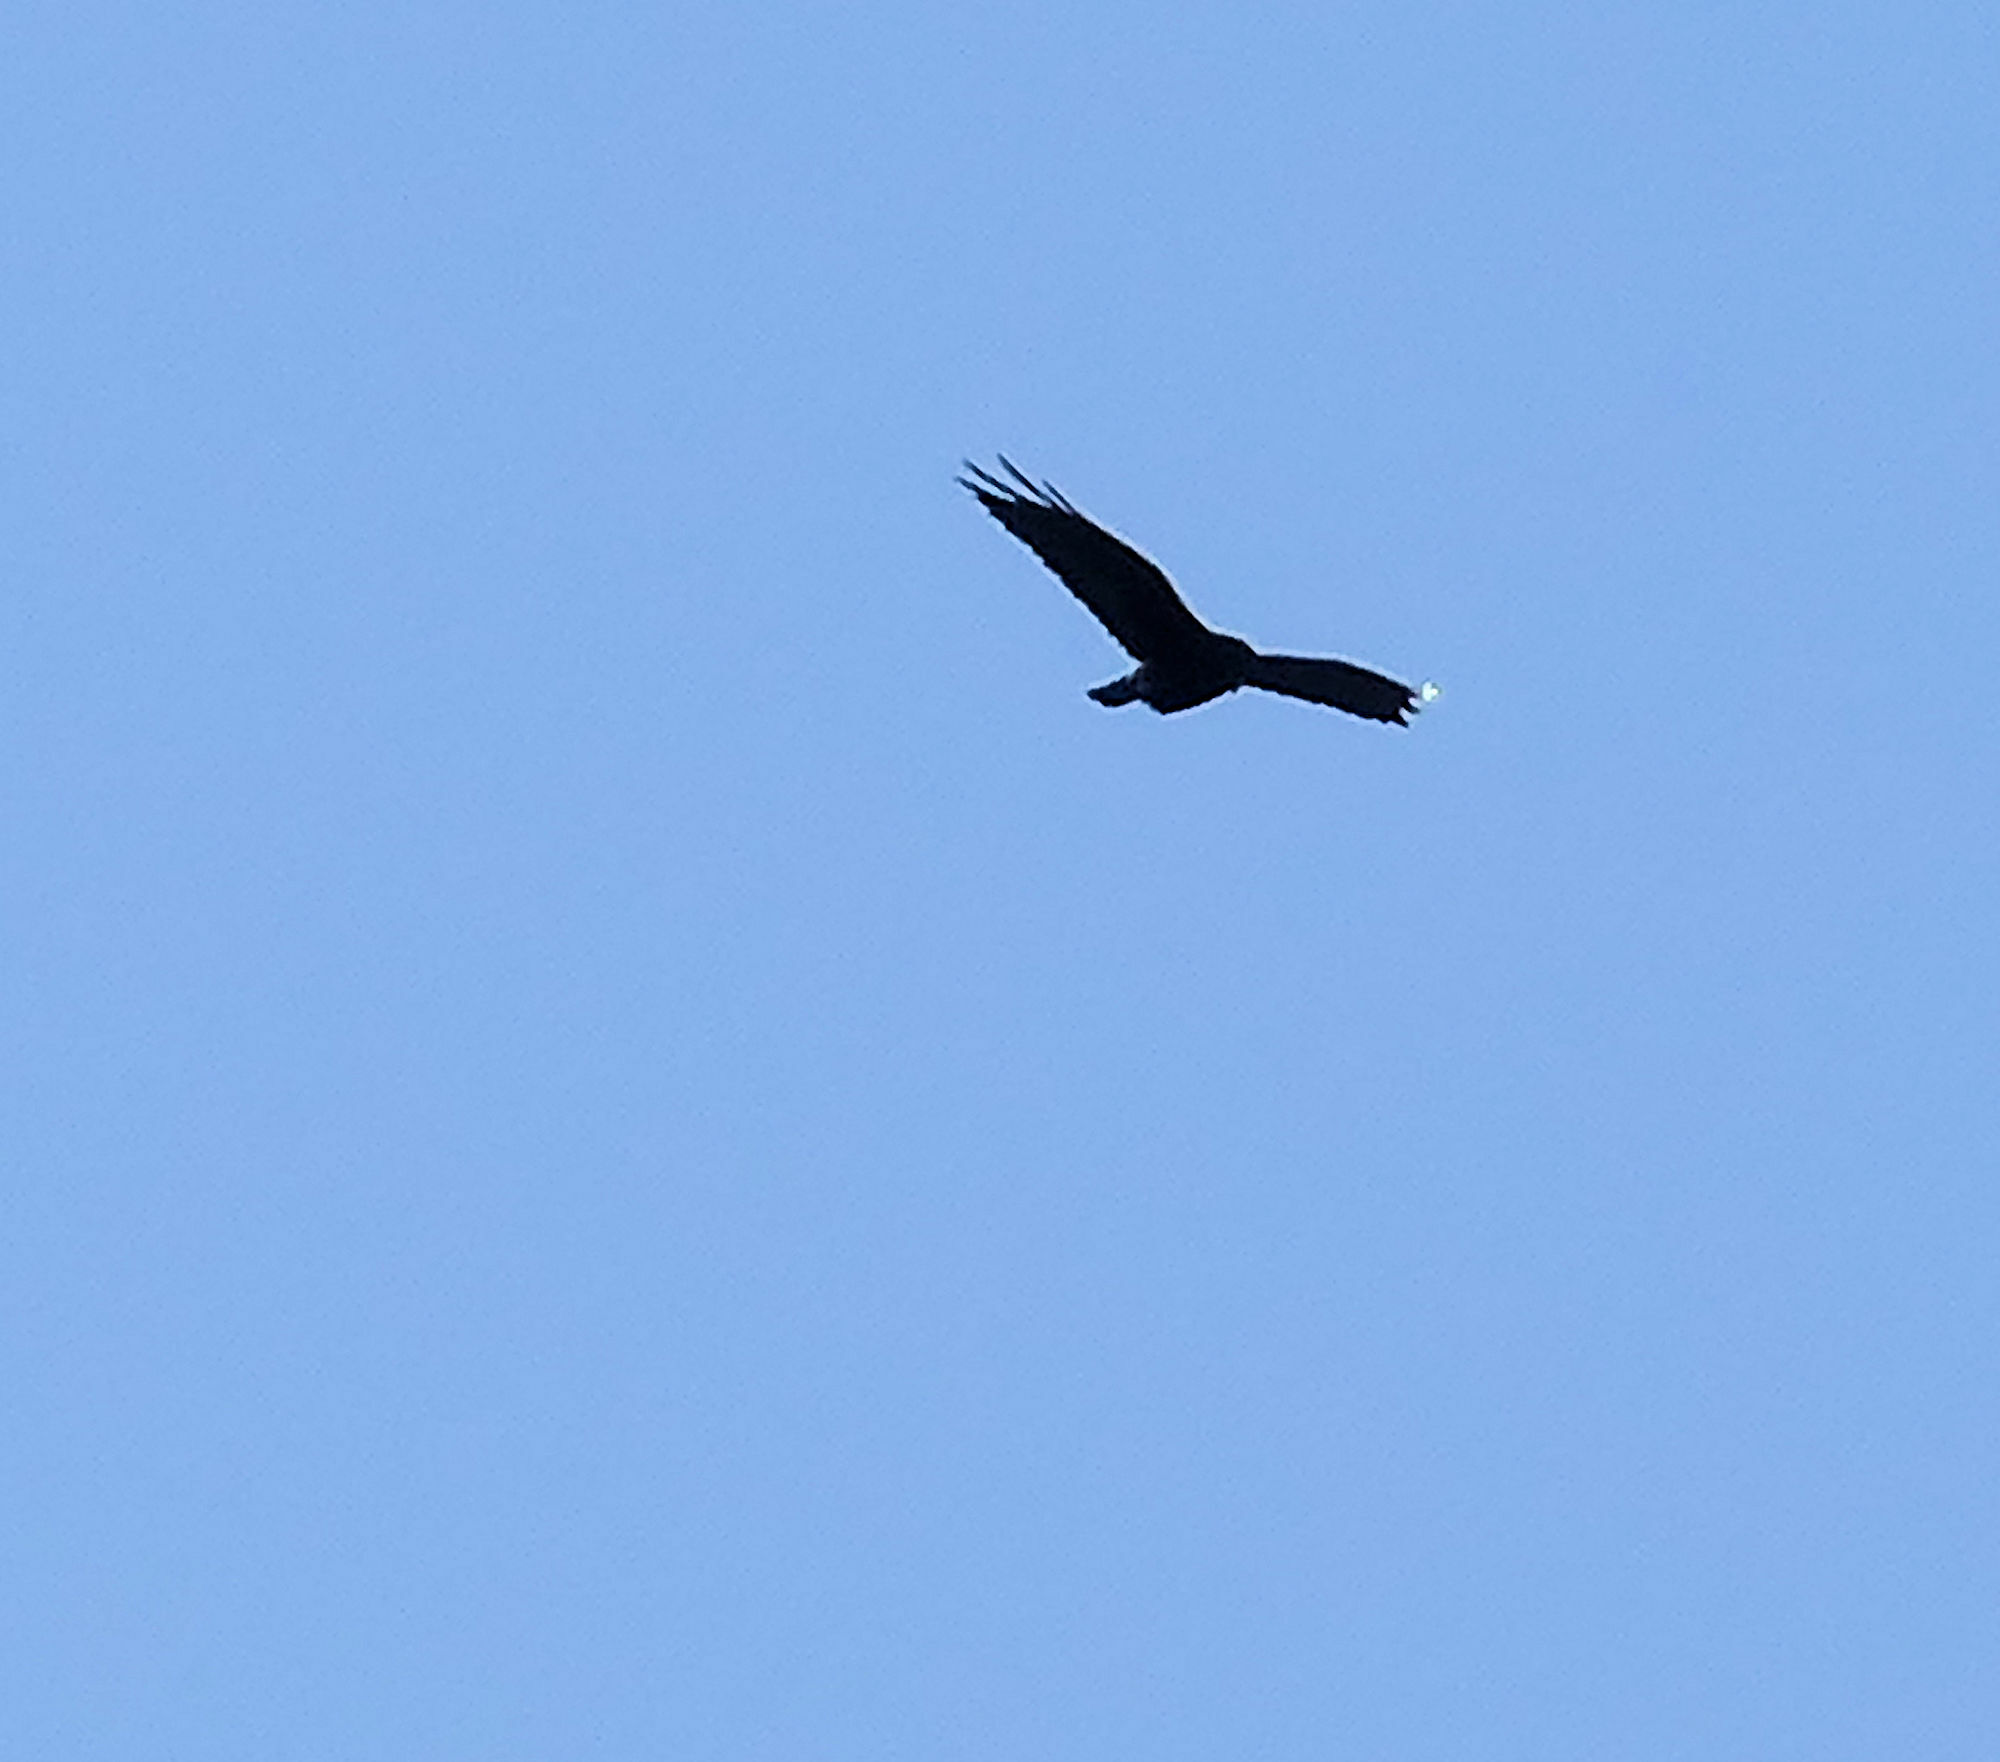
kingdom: Animalia
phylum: Chordata
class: Aves
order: Accipitriformes
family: Accipitridae
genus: Buteo
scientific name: Buteo albonotatus
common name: Zone-tailed hawk
